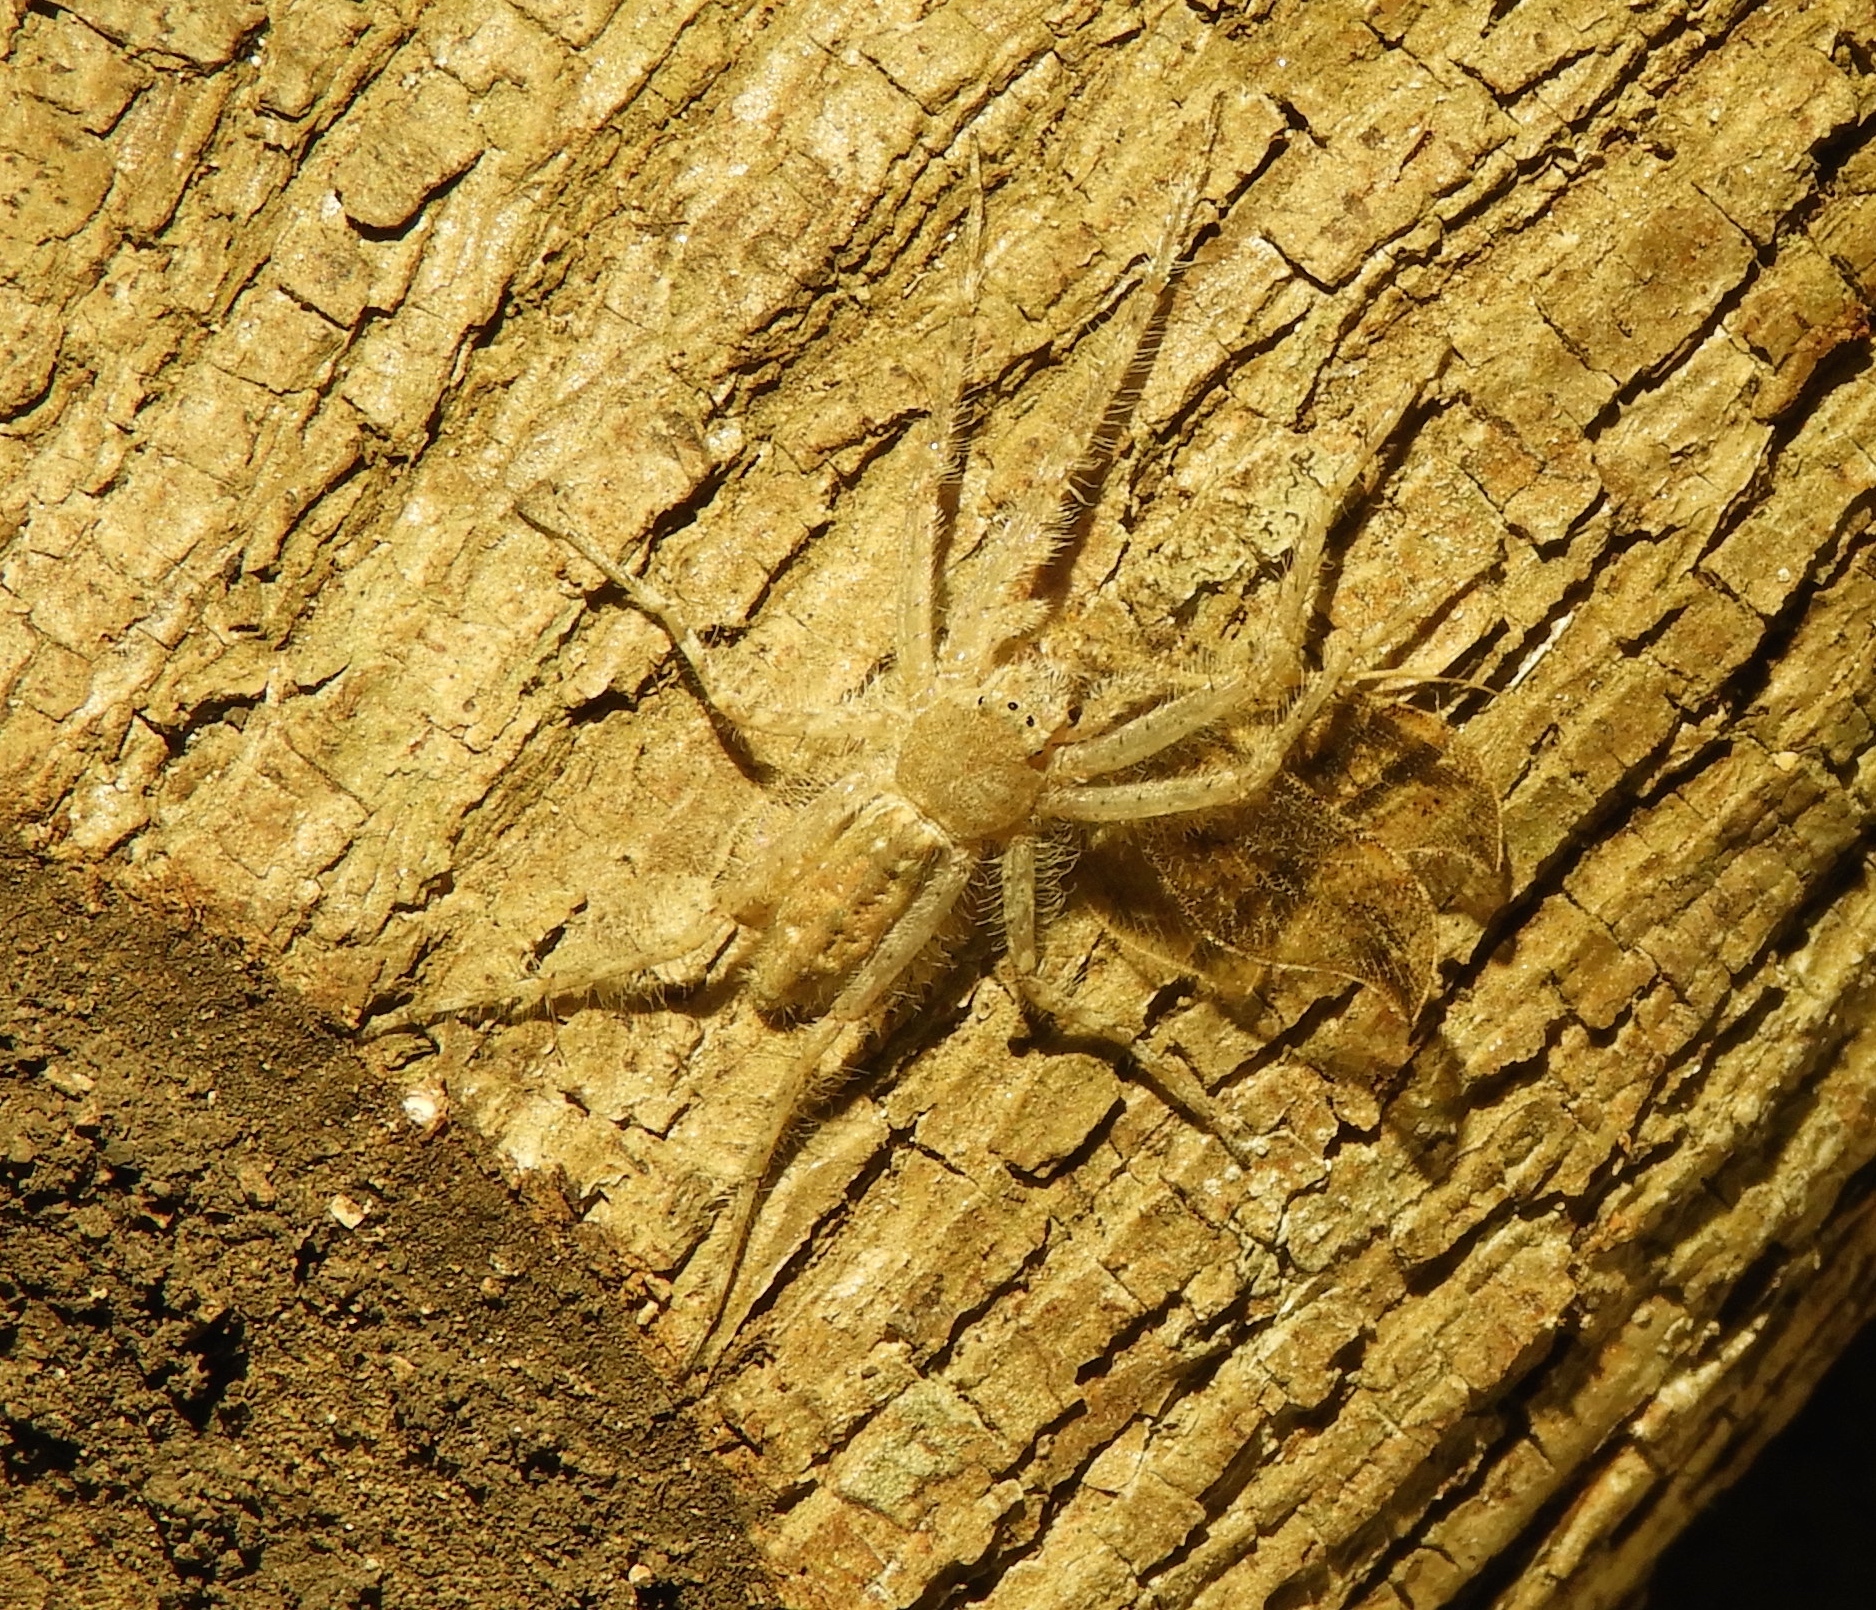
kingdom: Animalia
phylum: Arthropoda
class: Arachnida
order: Araneae
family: Senoculidae
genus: Senoculus
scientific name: Senoculus
